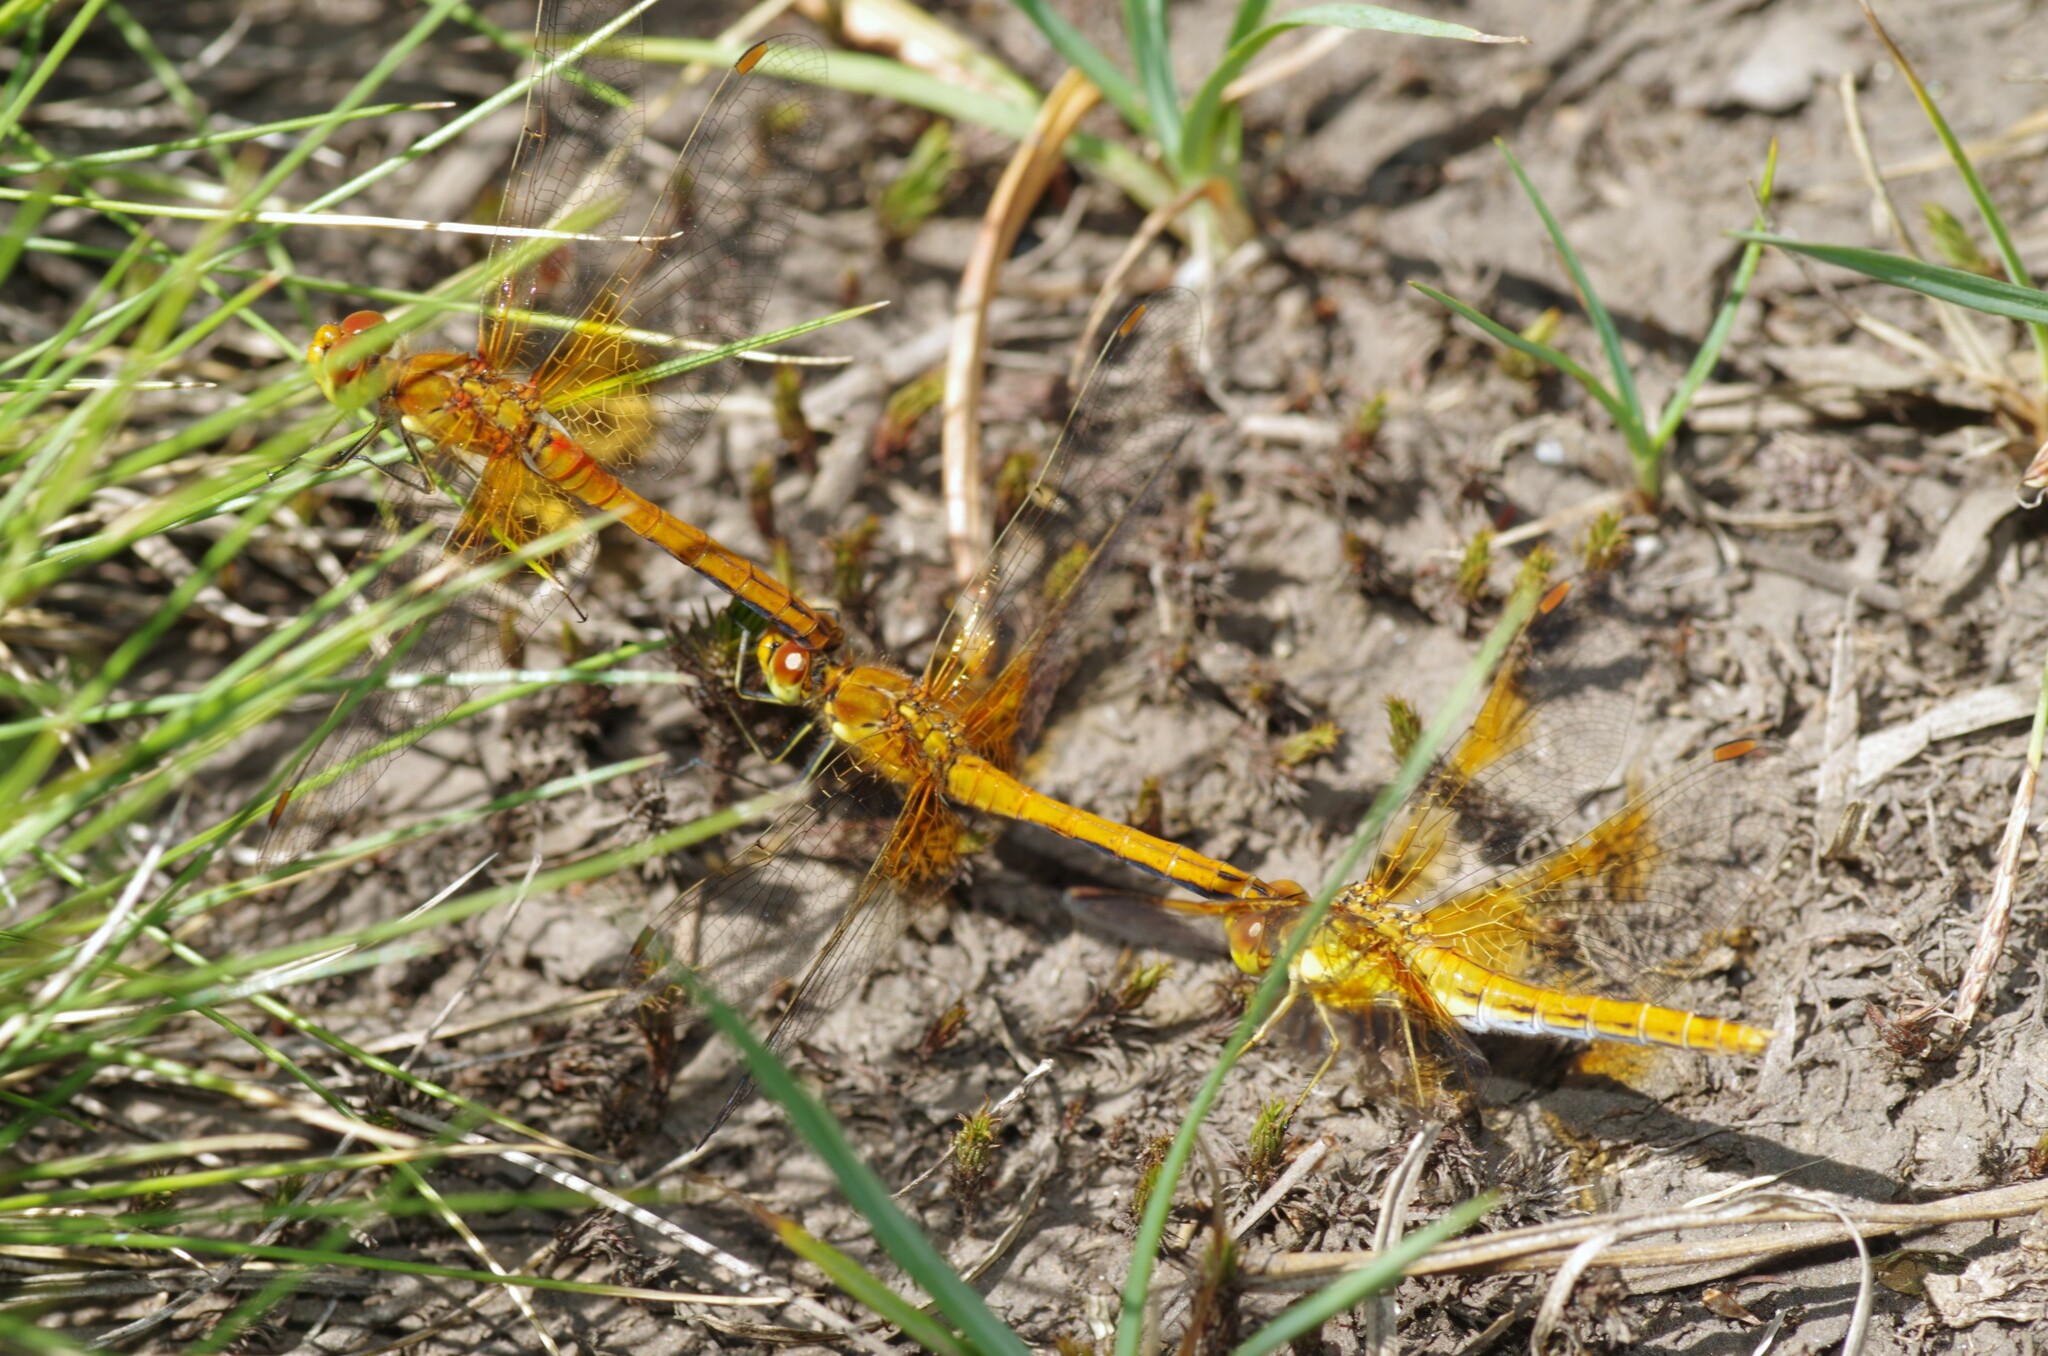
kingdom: Animalia
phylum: Arthropoda
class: Insecta
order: Odonata
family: Libellulidae
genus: Sympetrum
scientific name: Sympetrum flaveolum
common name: Yellow-winged darter
